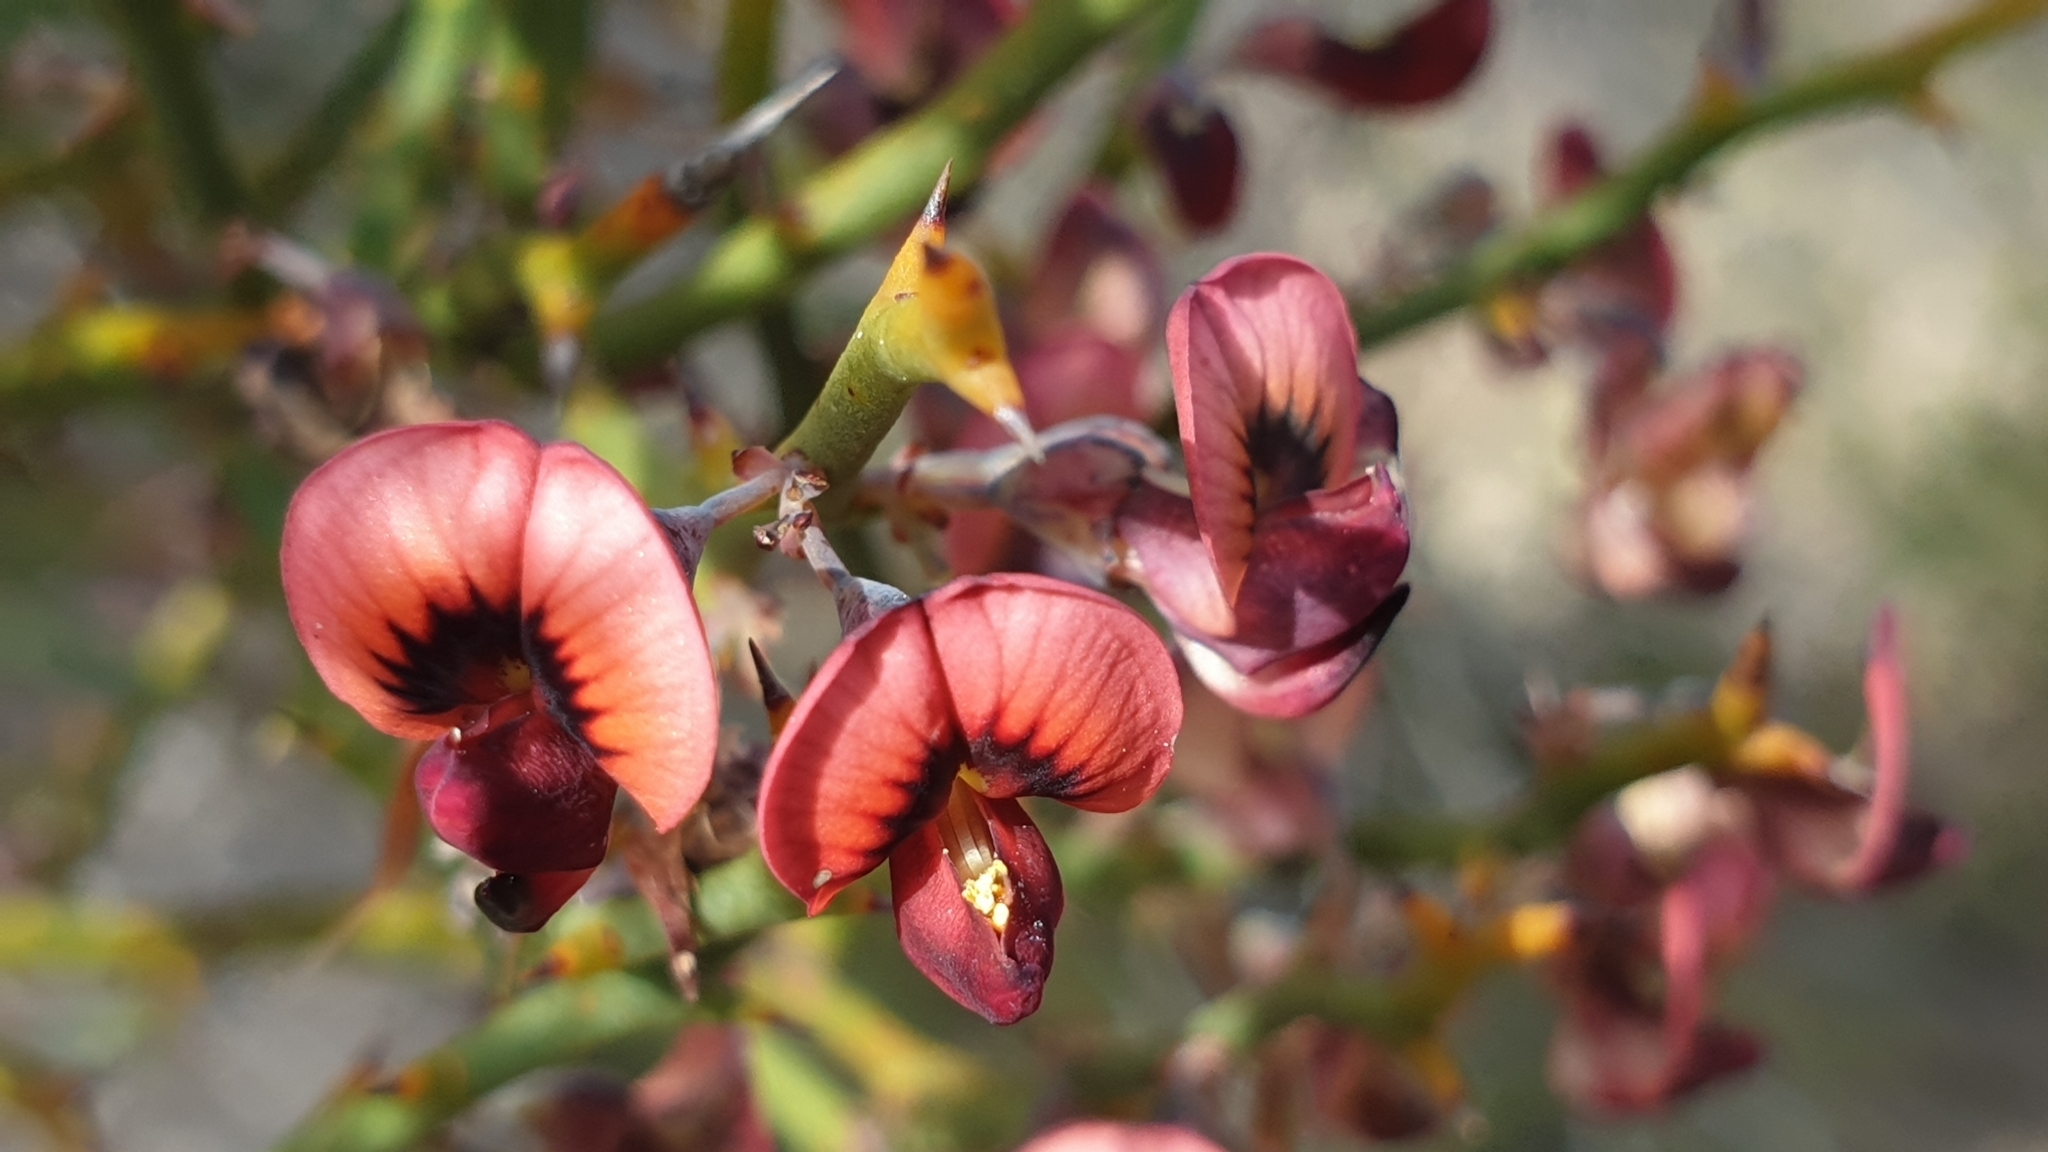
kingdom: Plantae
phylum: Tracheophyta
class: Magnoliopsida
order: Fabales
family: Fabaceae
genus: Daviesia
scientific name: Daviesia brevifolia
